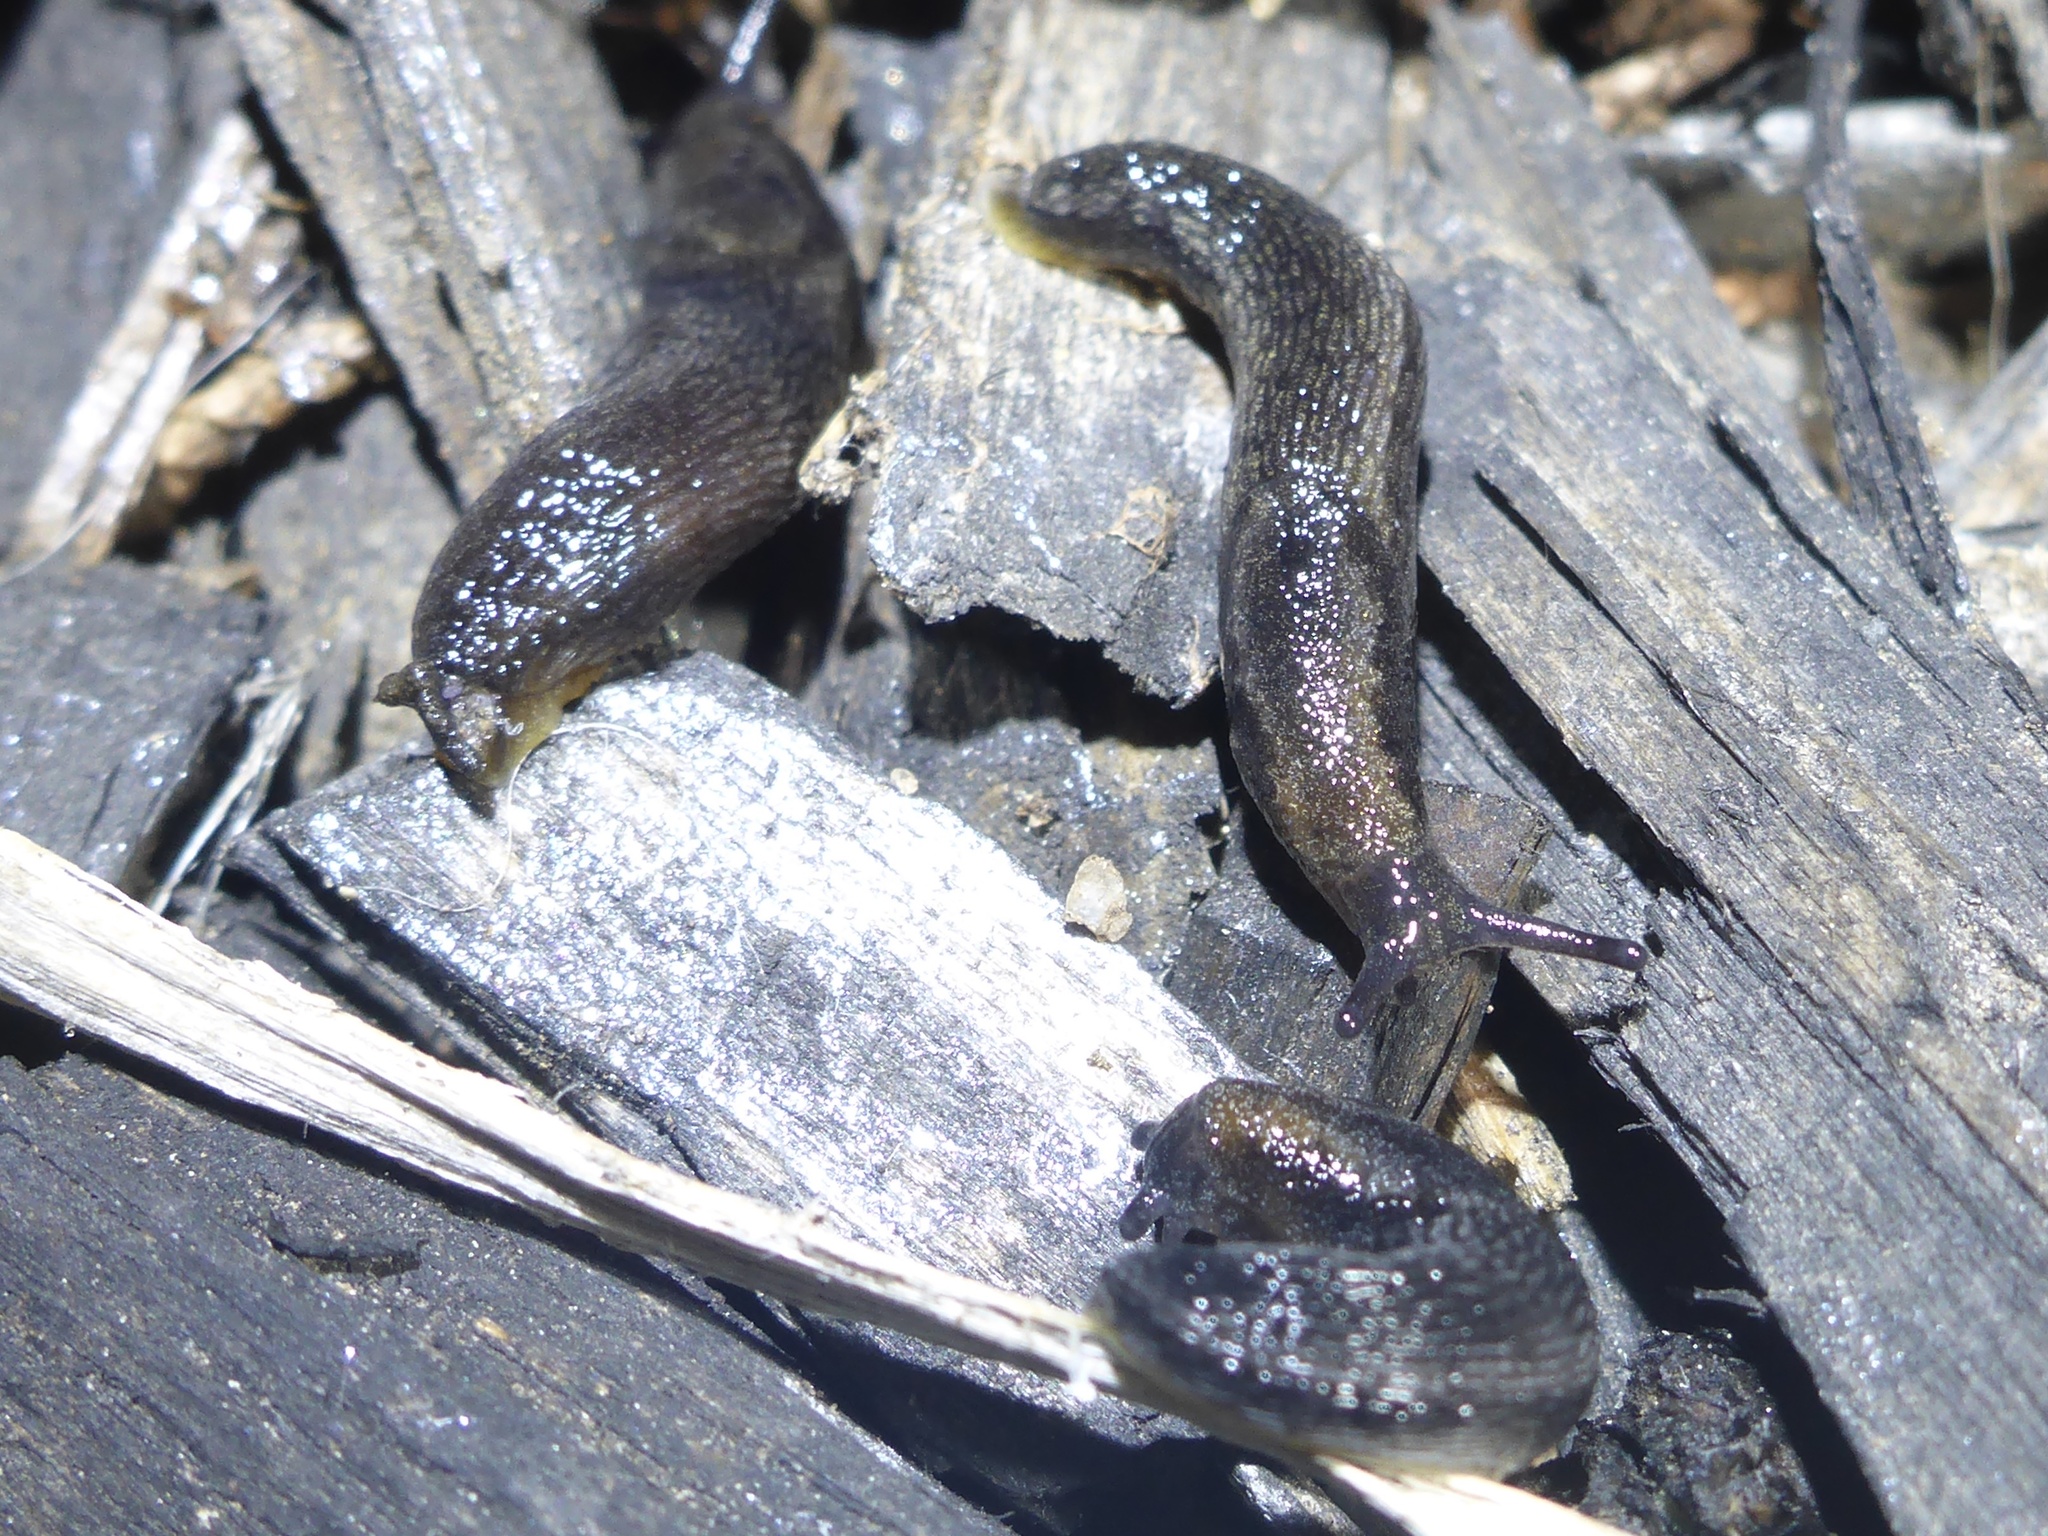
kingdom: Animalia
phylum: Mollusca
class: Gastropoda
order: Stylommatophora
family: Arionidae
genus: Arion
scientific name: Arion hortensis
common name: Garden arion
